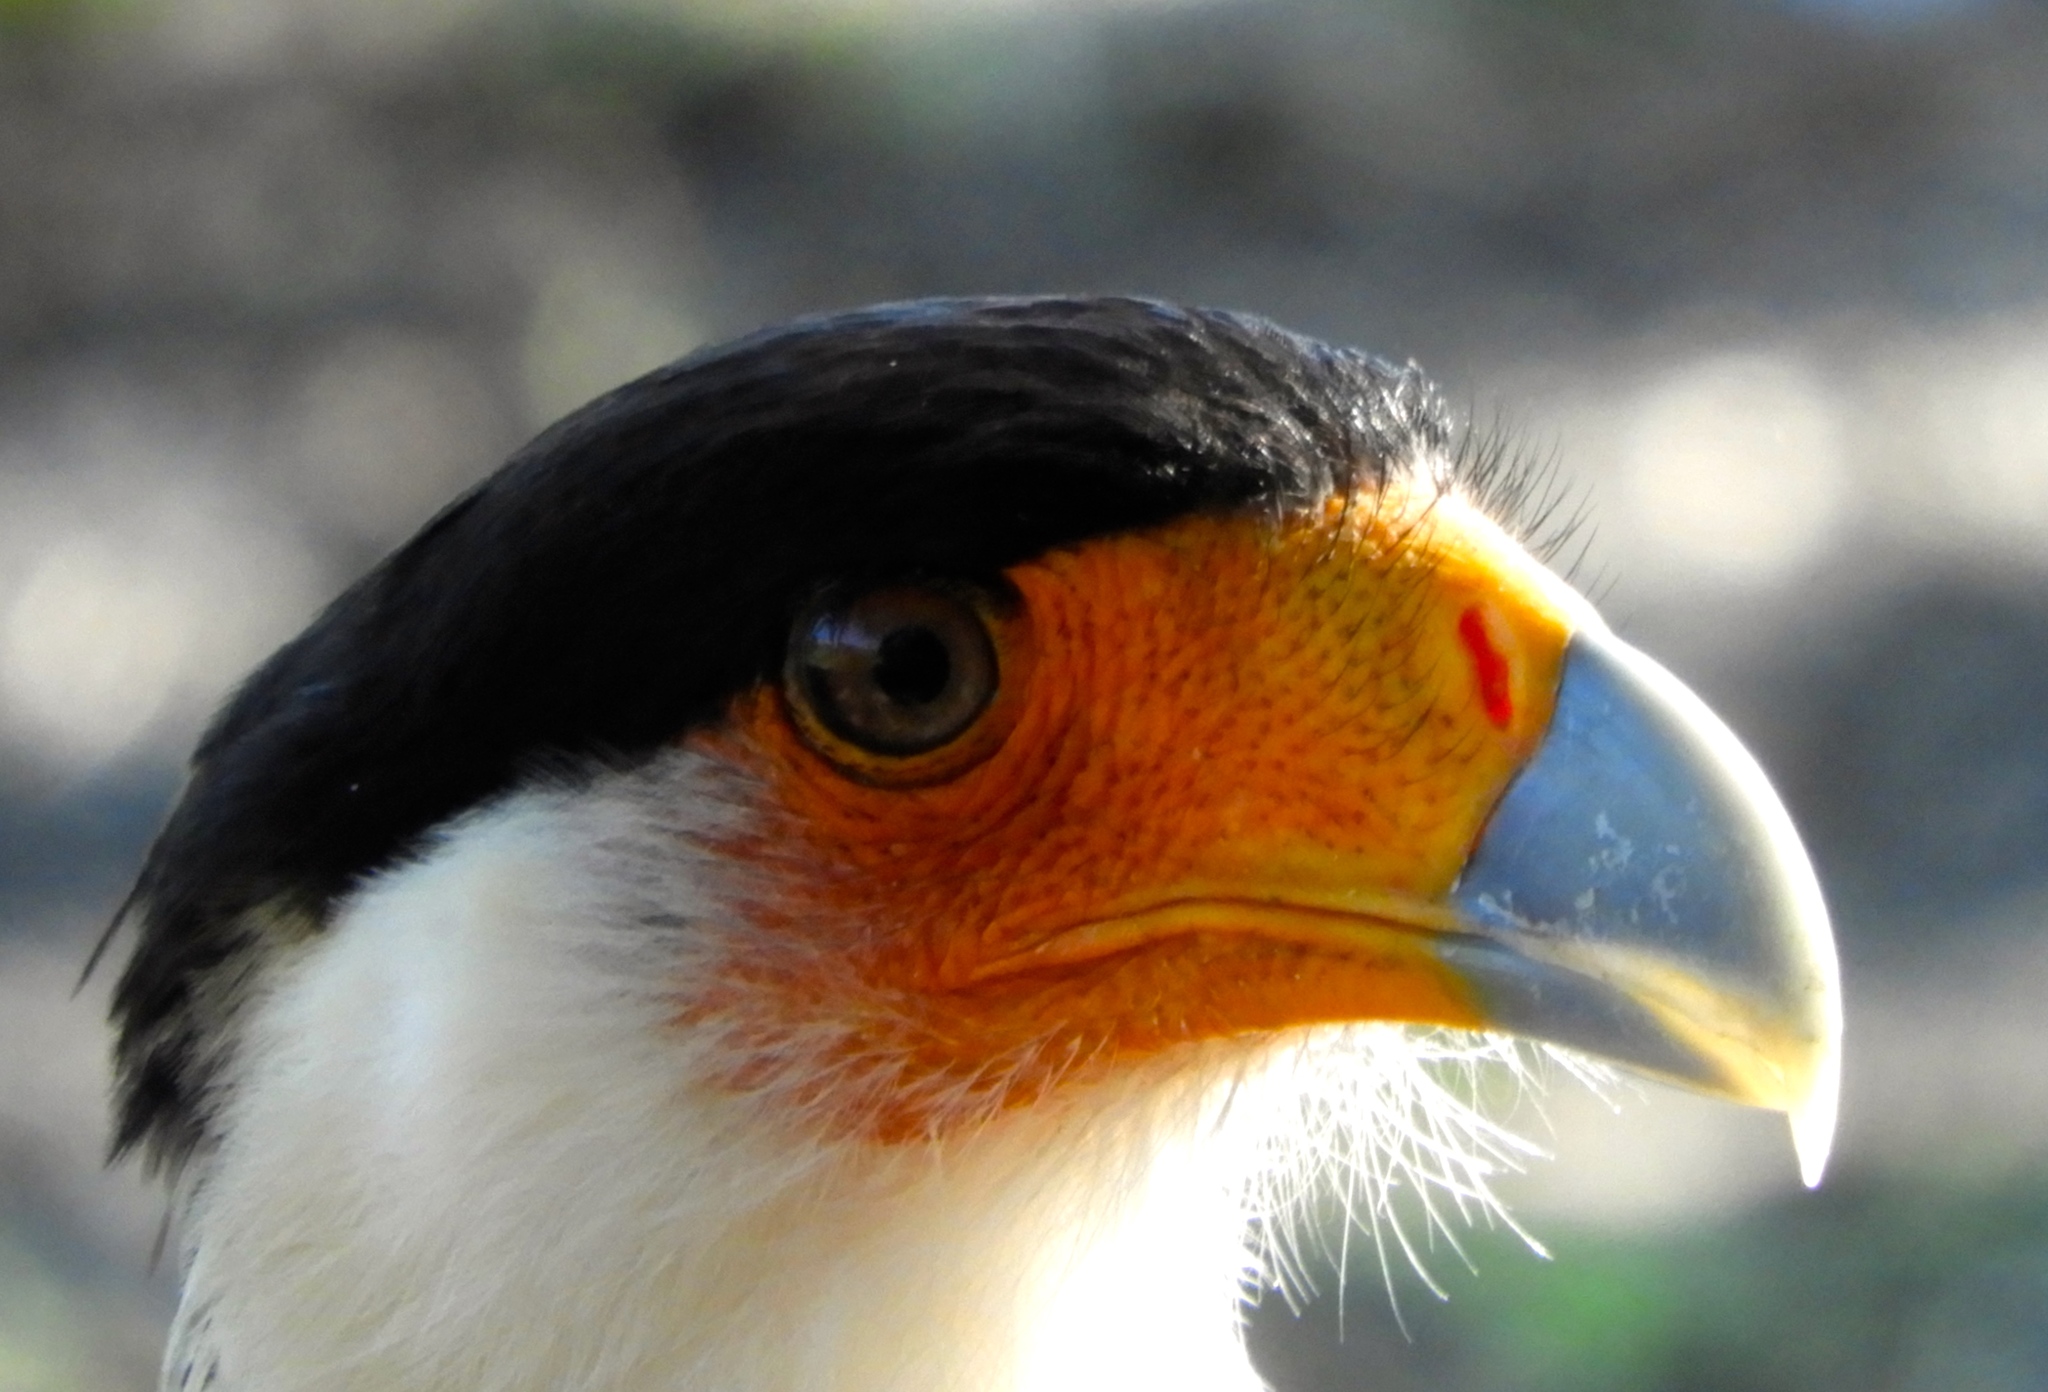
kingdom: Animalia
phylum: Chordata
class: Aves
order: Falconiformes
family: Falconidae
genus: Caracara
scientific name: Caracara plancus
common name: Southern caracara
